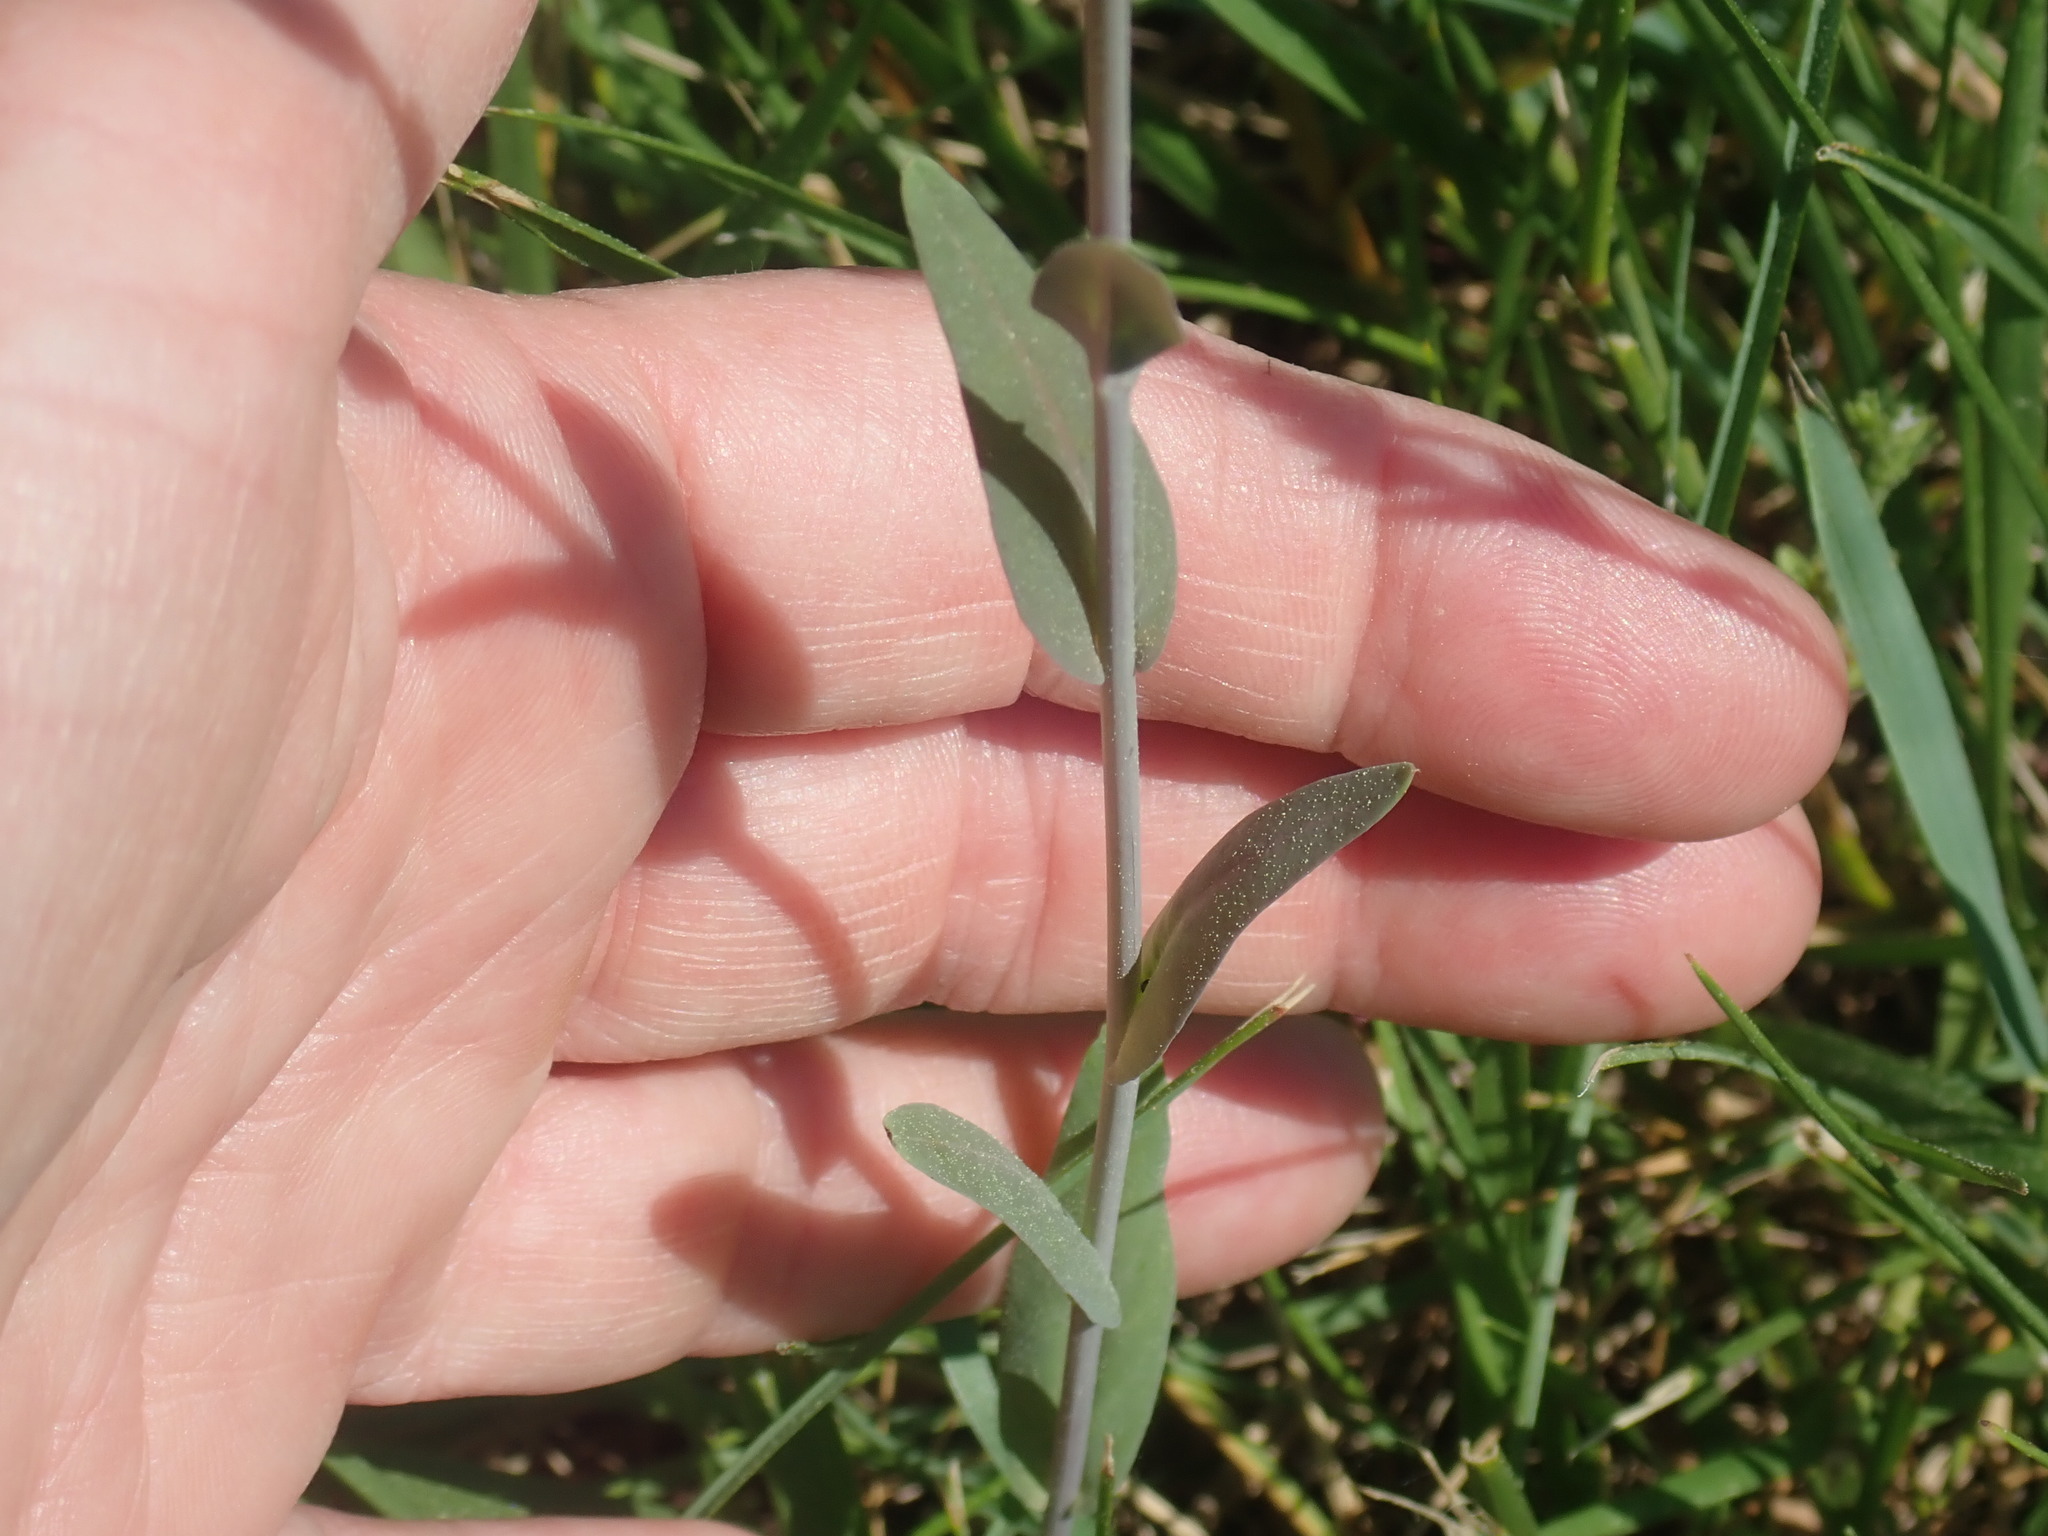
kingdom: Plantae
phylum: Tracheophyta
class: Magnoliopsida
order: Brassicales
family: Brassicaceae
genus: Turritis
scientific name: Turritis glabra
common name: Tower rockcress
